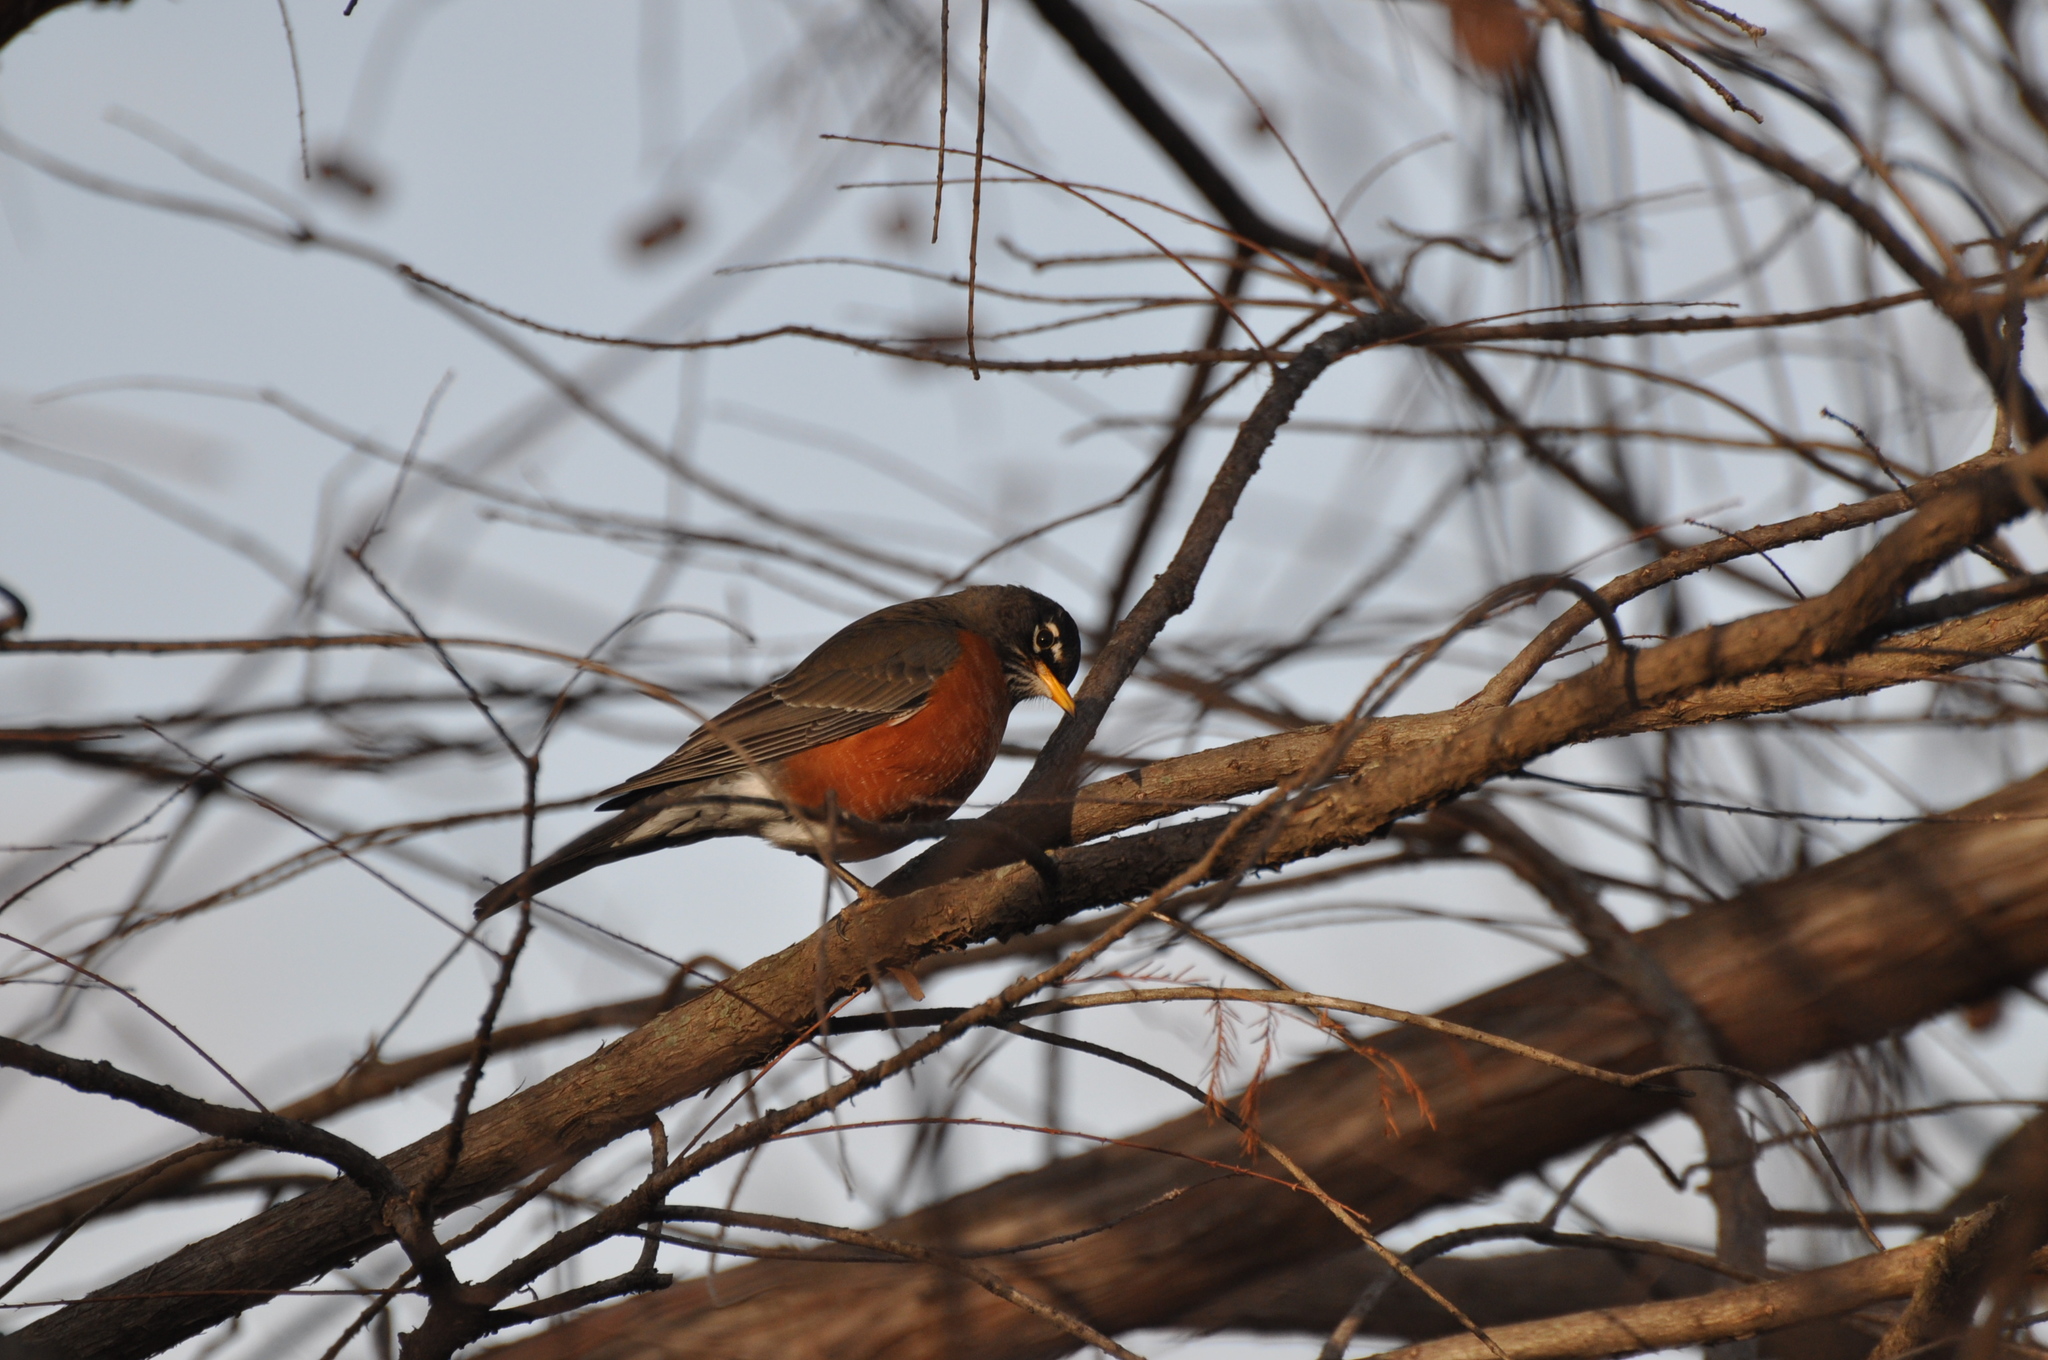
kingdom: Animalia
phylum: Chordata
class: Aves
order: Passeriformes
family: Turdidae
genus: Turdus
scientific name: Turdus migratorius
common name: American robin
